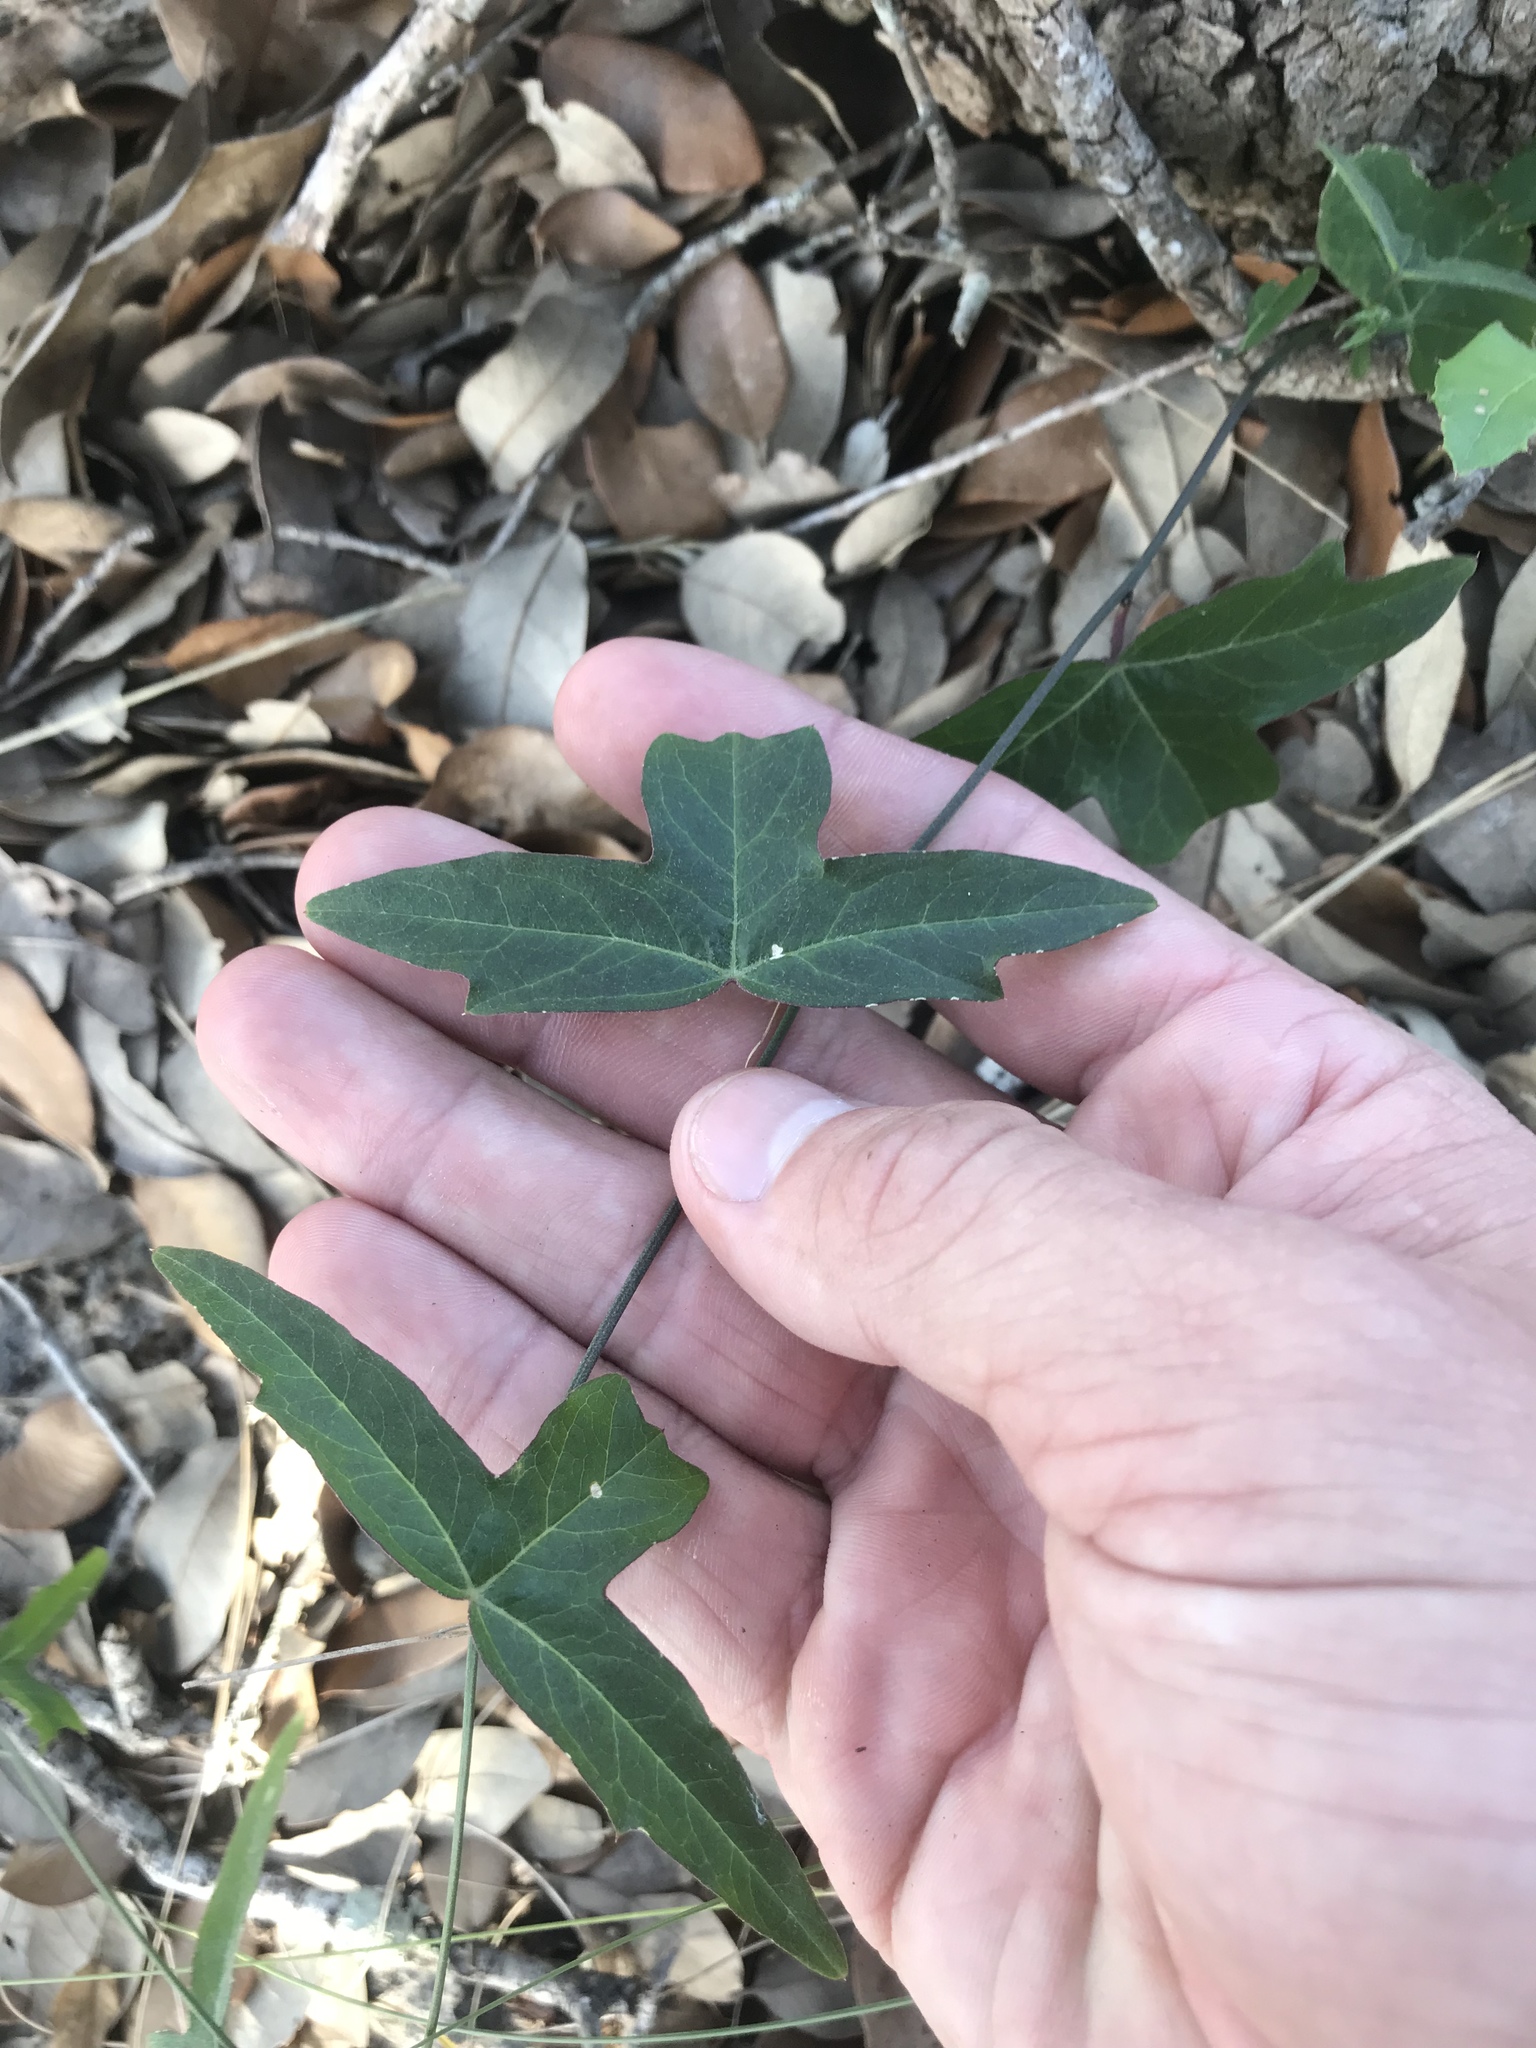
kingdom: Plantae
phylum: Tracheophyta
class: Magnoliopsida
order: Malpighiales
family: Passifloraceae
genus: Passiflora
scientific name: Passiflora tenuiloba
